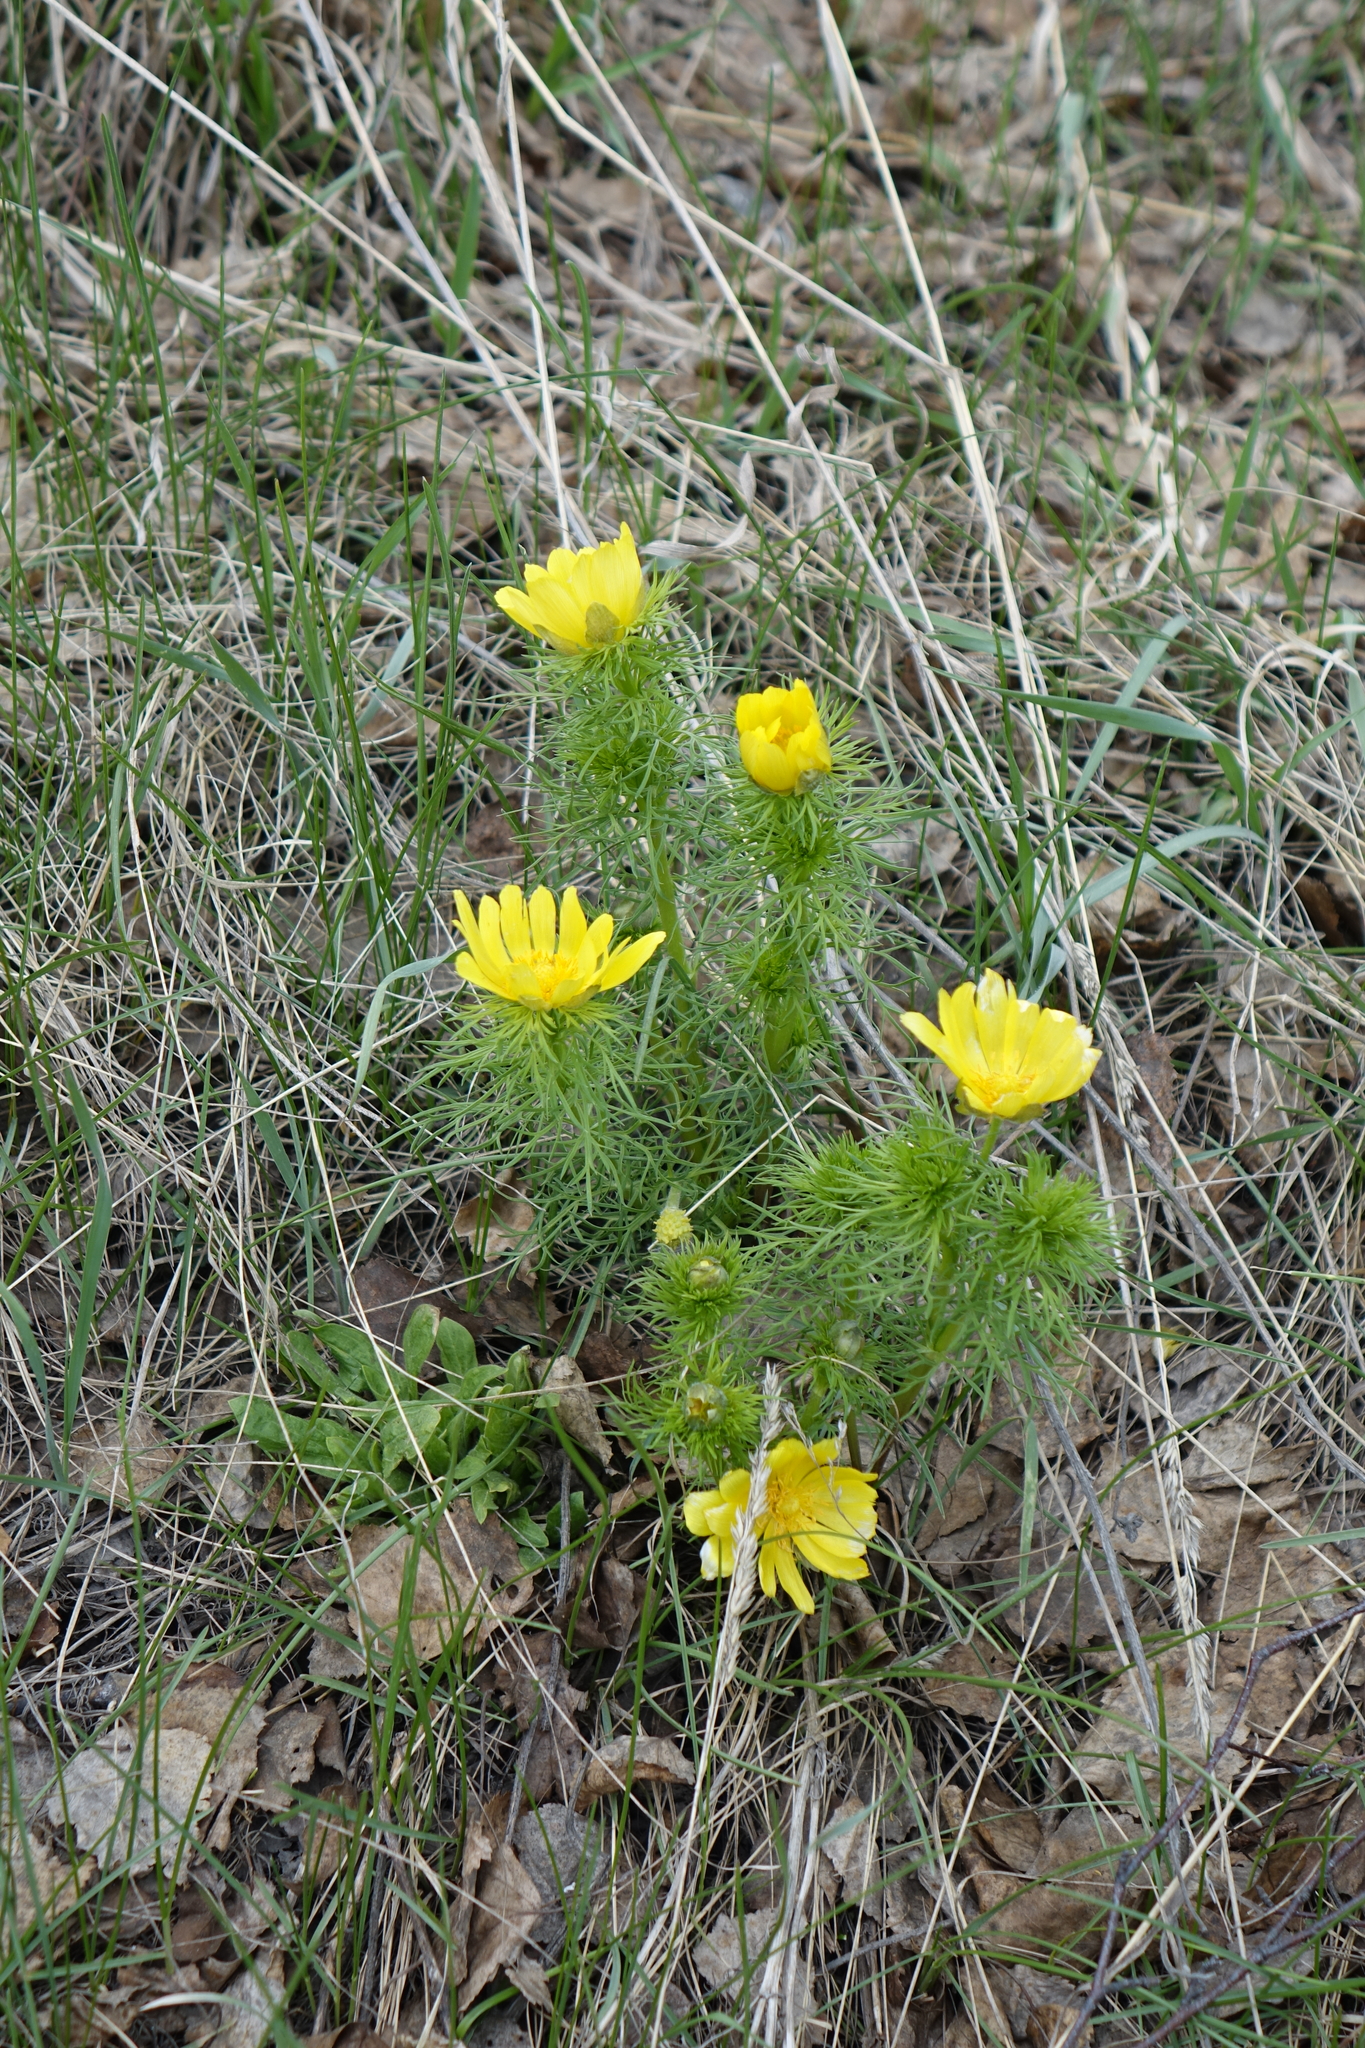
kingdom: Plantae
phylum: Tracheophyta
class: Magnoliopsida
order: Ranunculales
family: Ranunculaceae
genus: Adonis
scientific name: Adonis vernalis
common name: Yellow pheasants-eye
